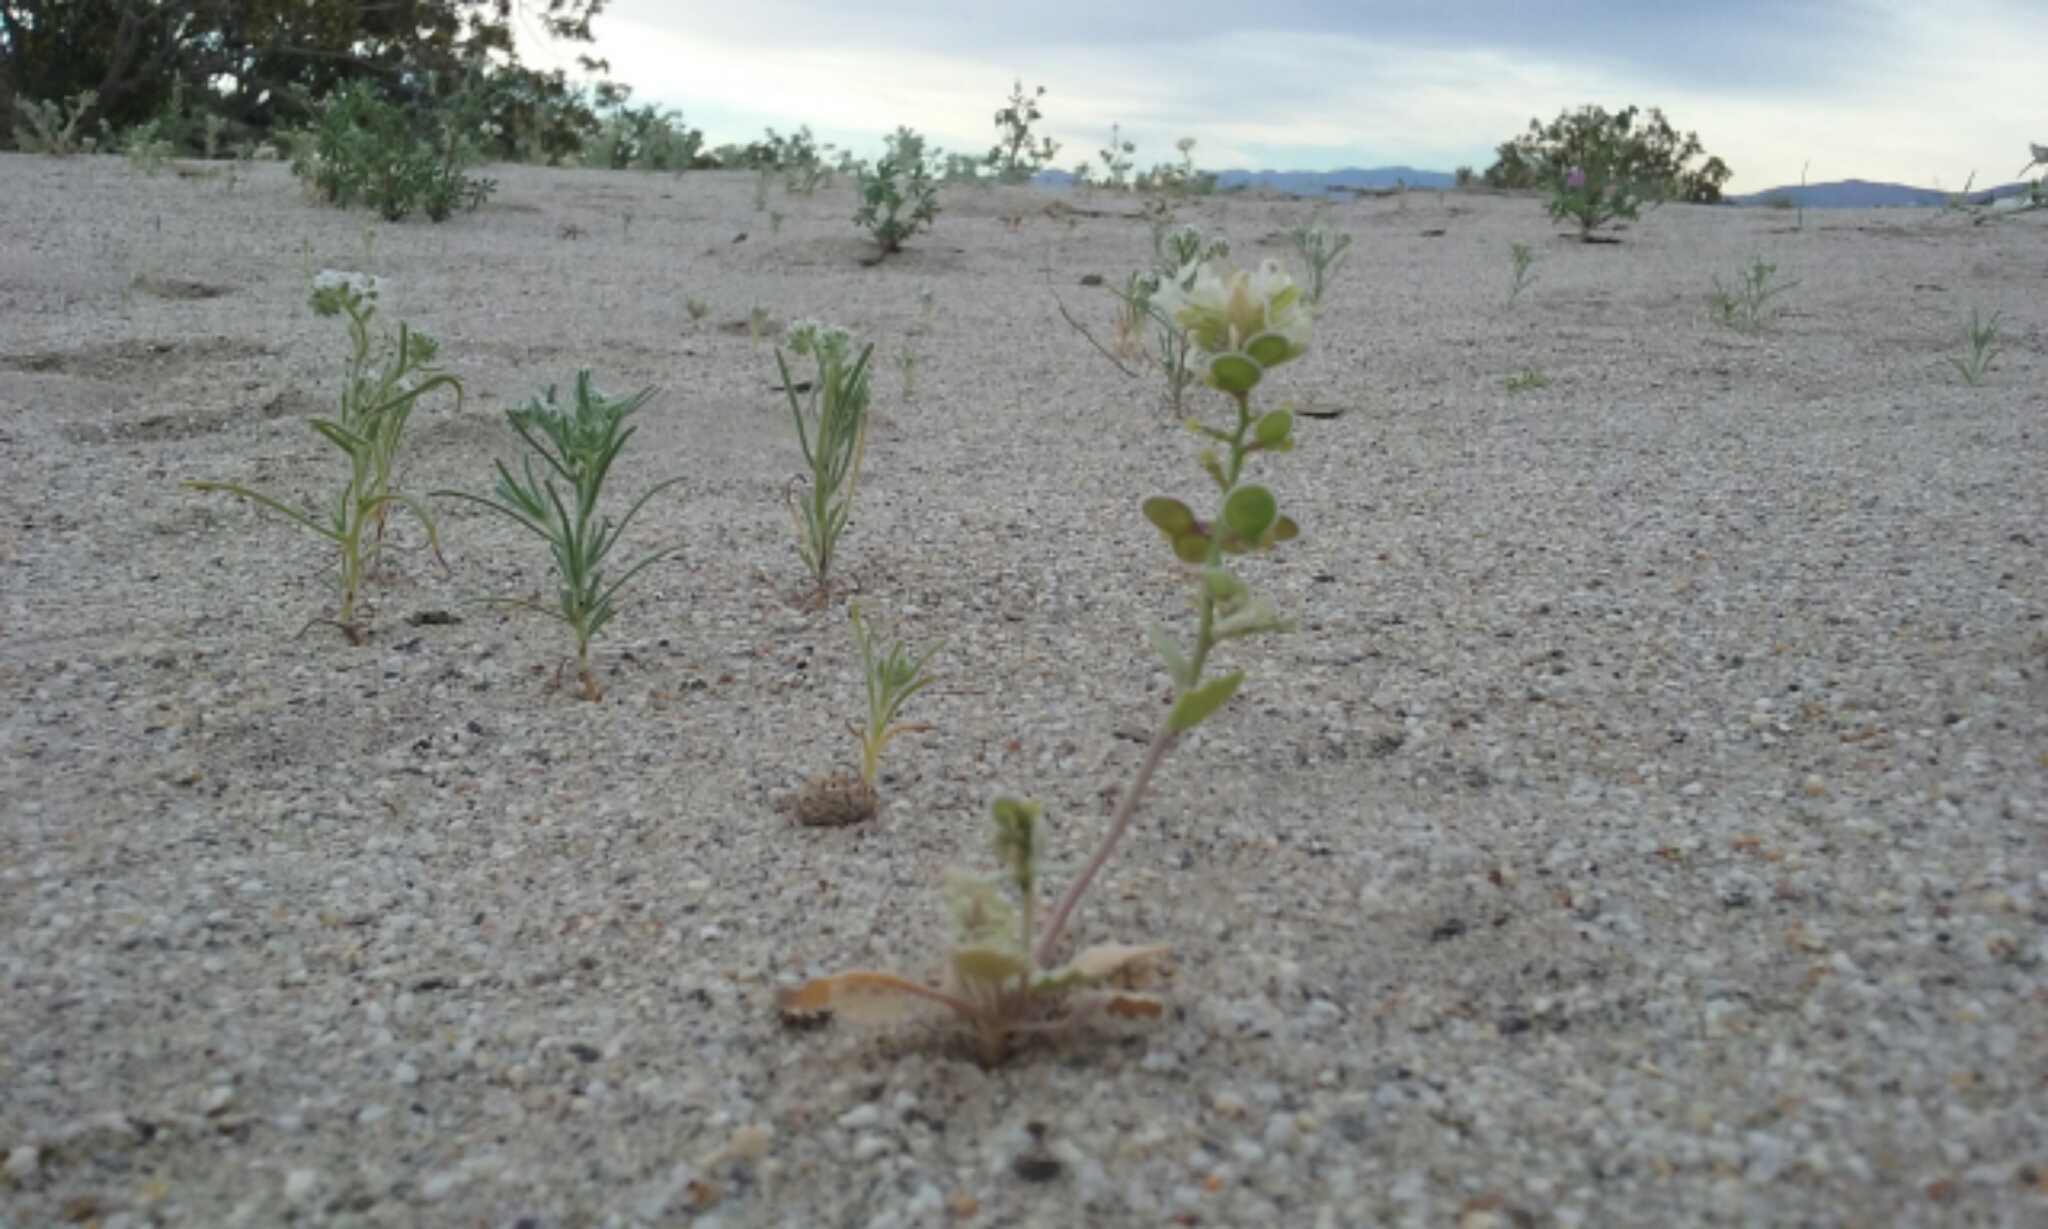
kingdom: Plantae
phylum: Tracheophyta
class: Magnoliopsida
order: Brassicales
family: Brassicaceae
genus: Dithyrea
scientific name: Dithyrea californica
